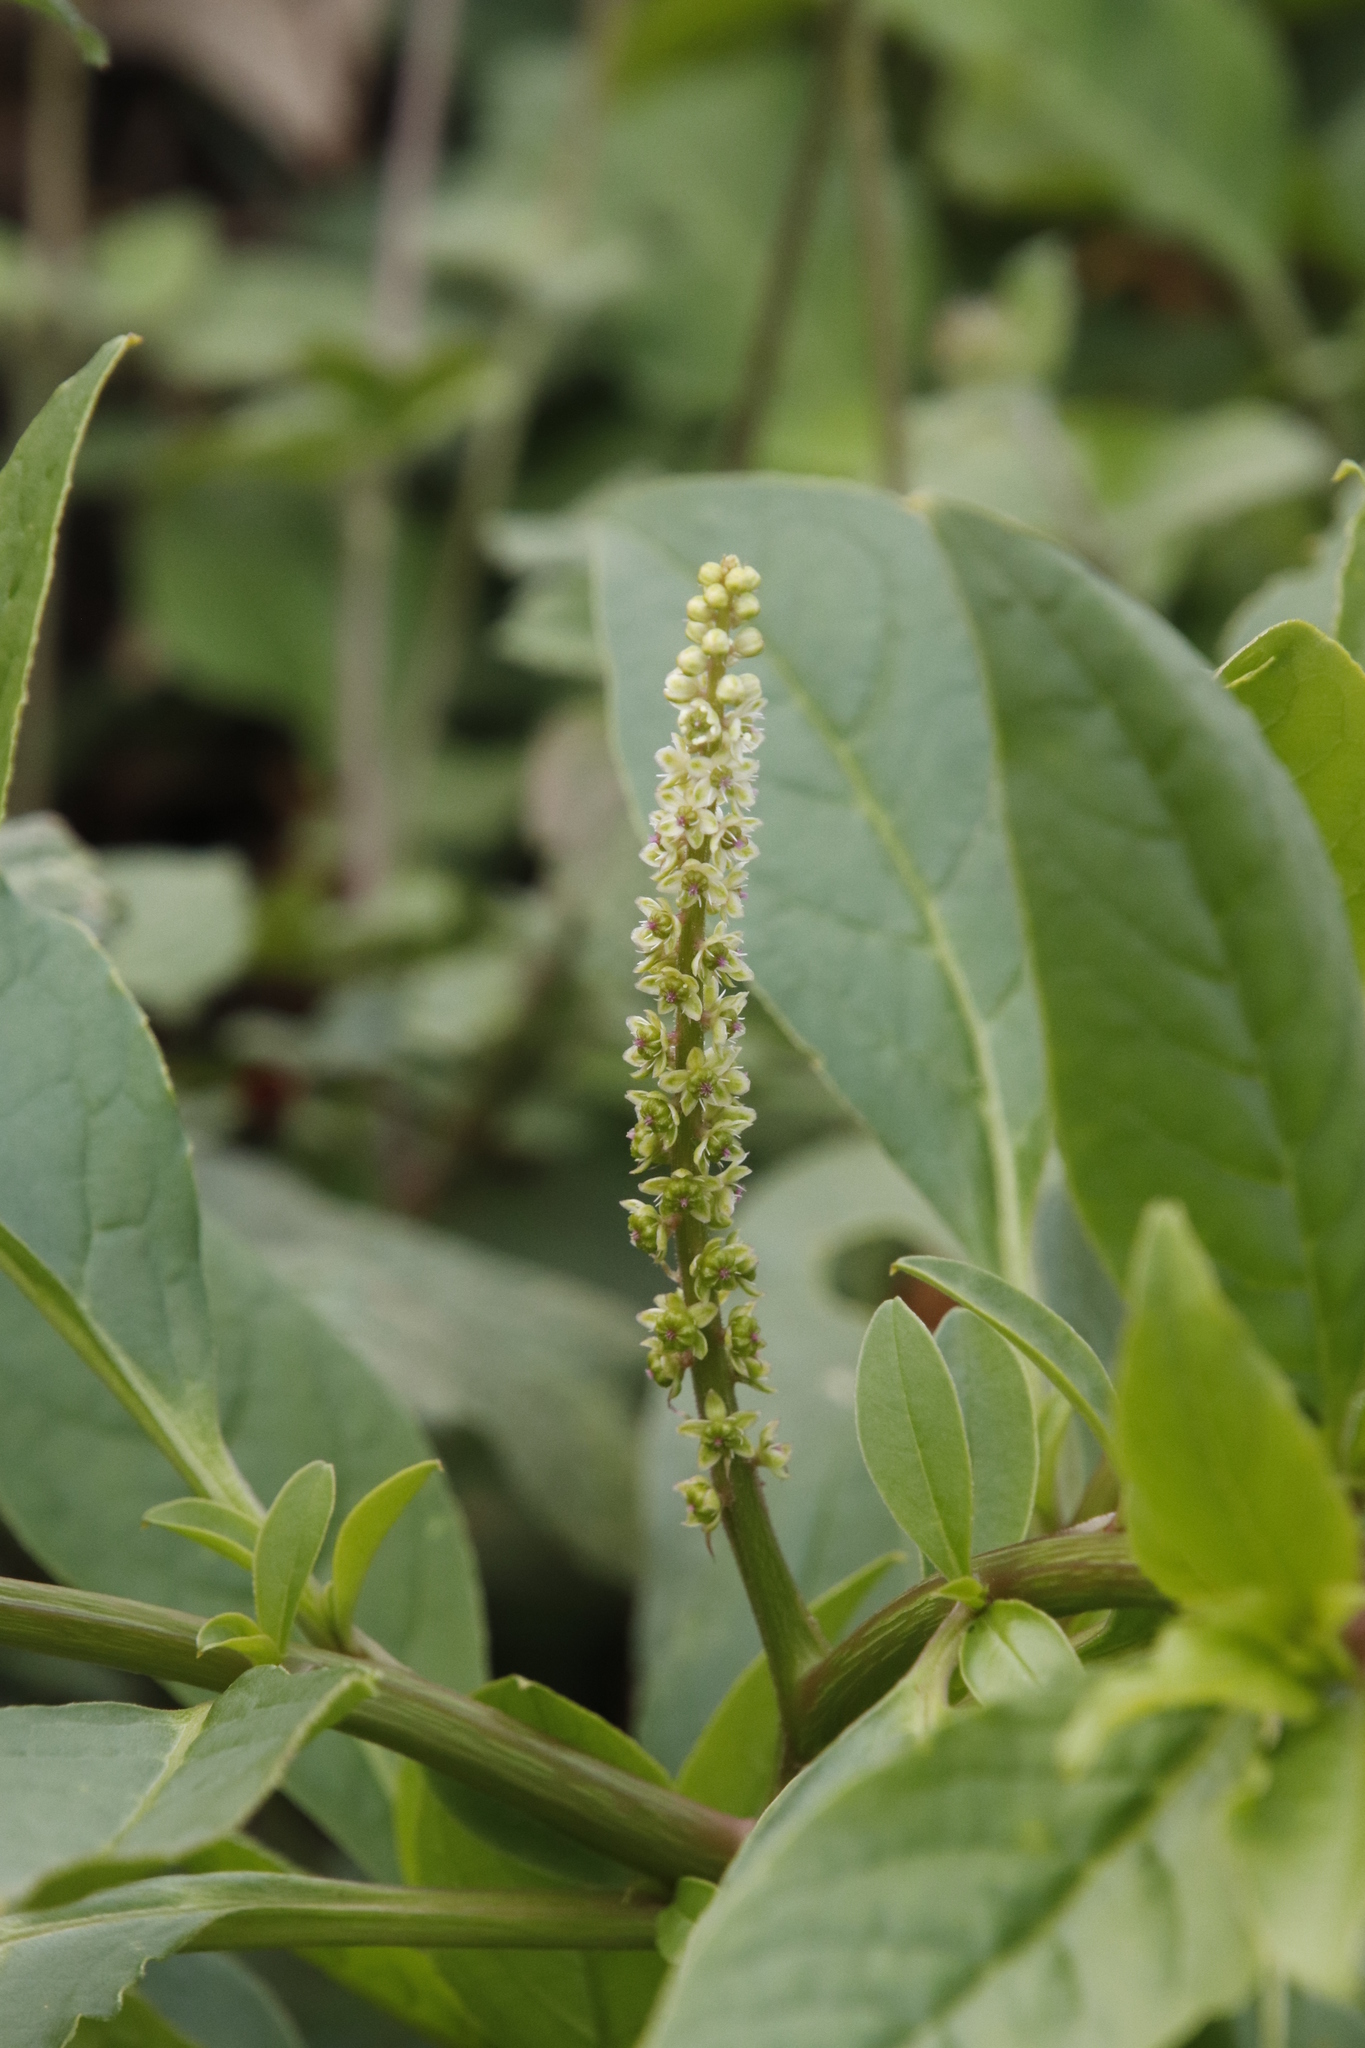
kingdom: Plantae
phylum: Tracheophyta
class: Magnoliopsida
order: Caryophyllales
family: Phytolaccaceae
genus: Phytolacca
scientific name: Phytolacca icosandra
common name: Button pokeweed
